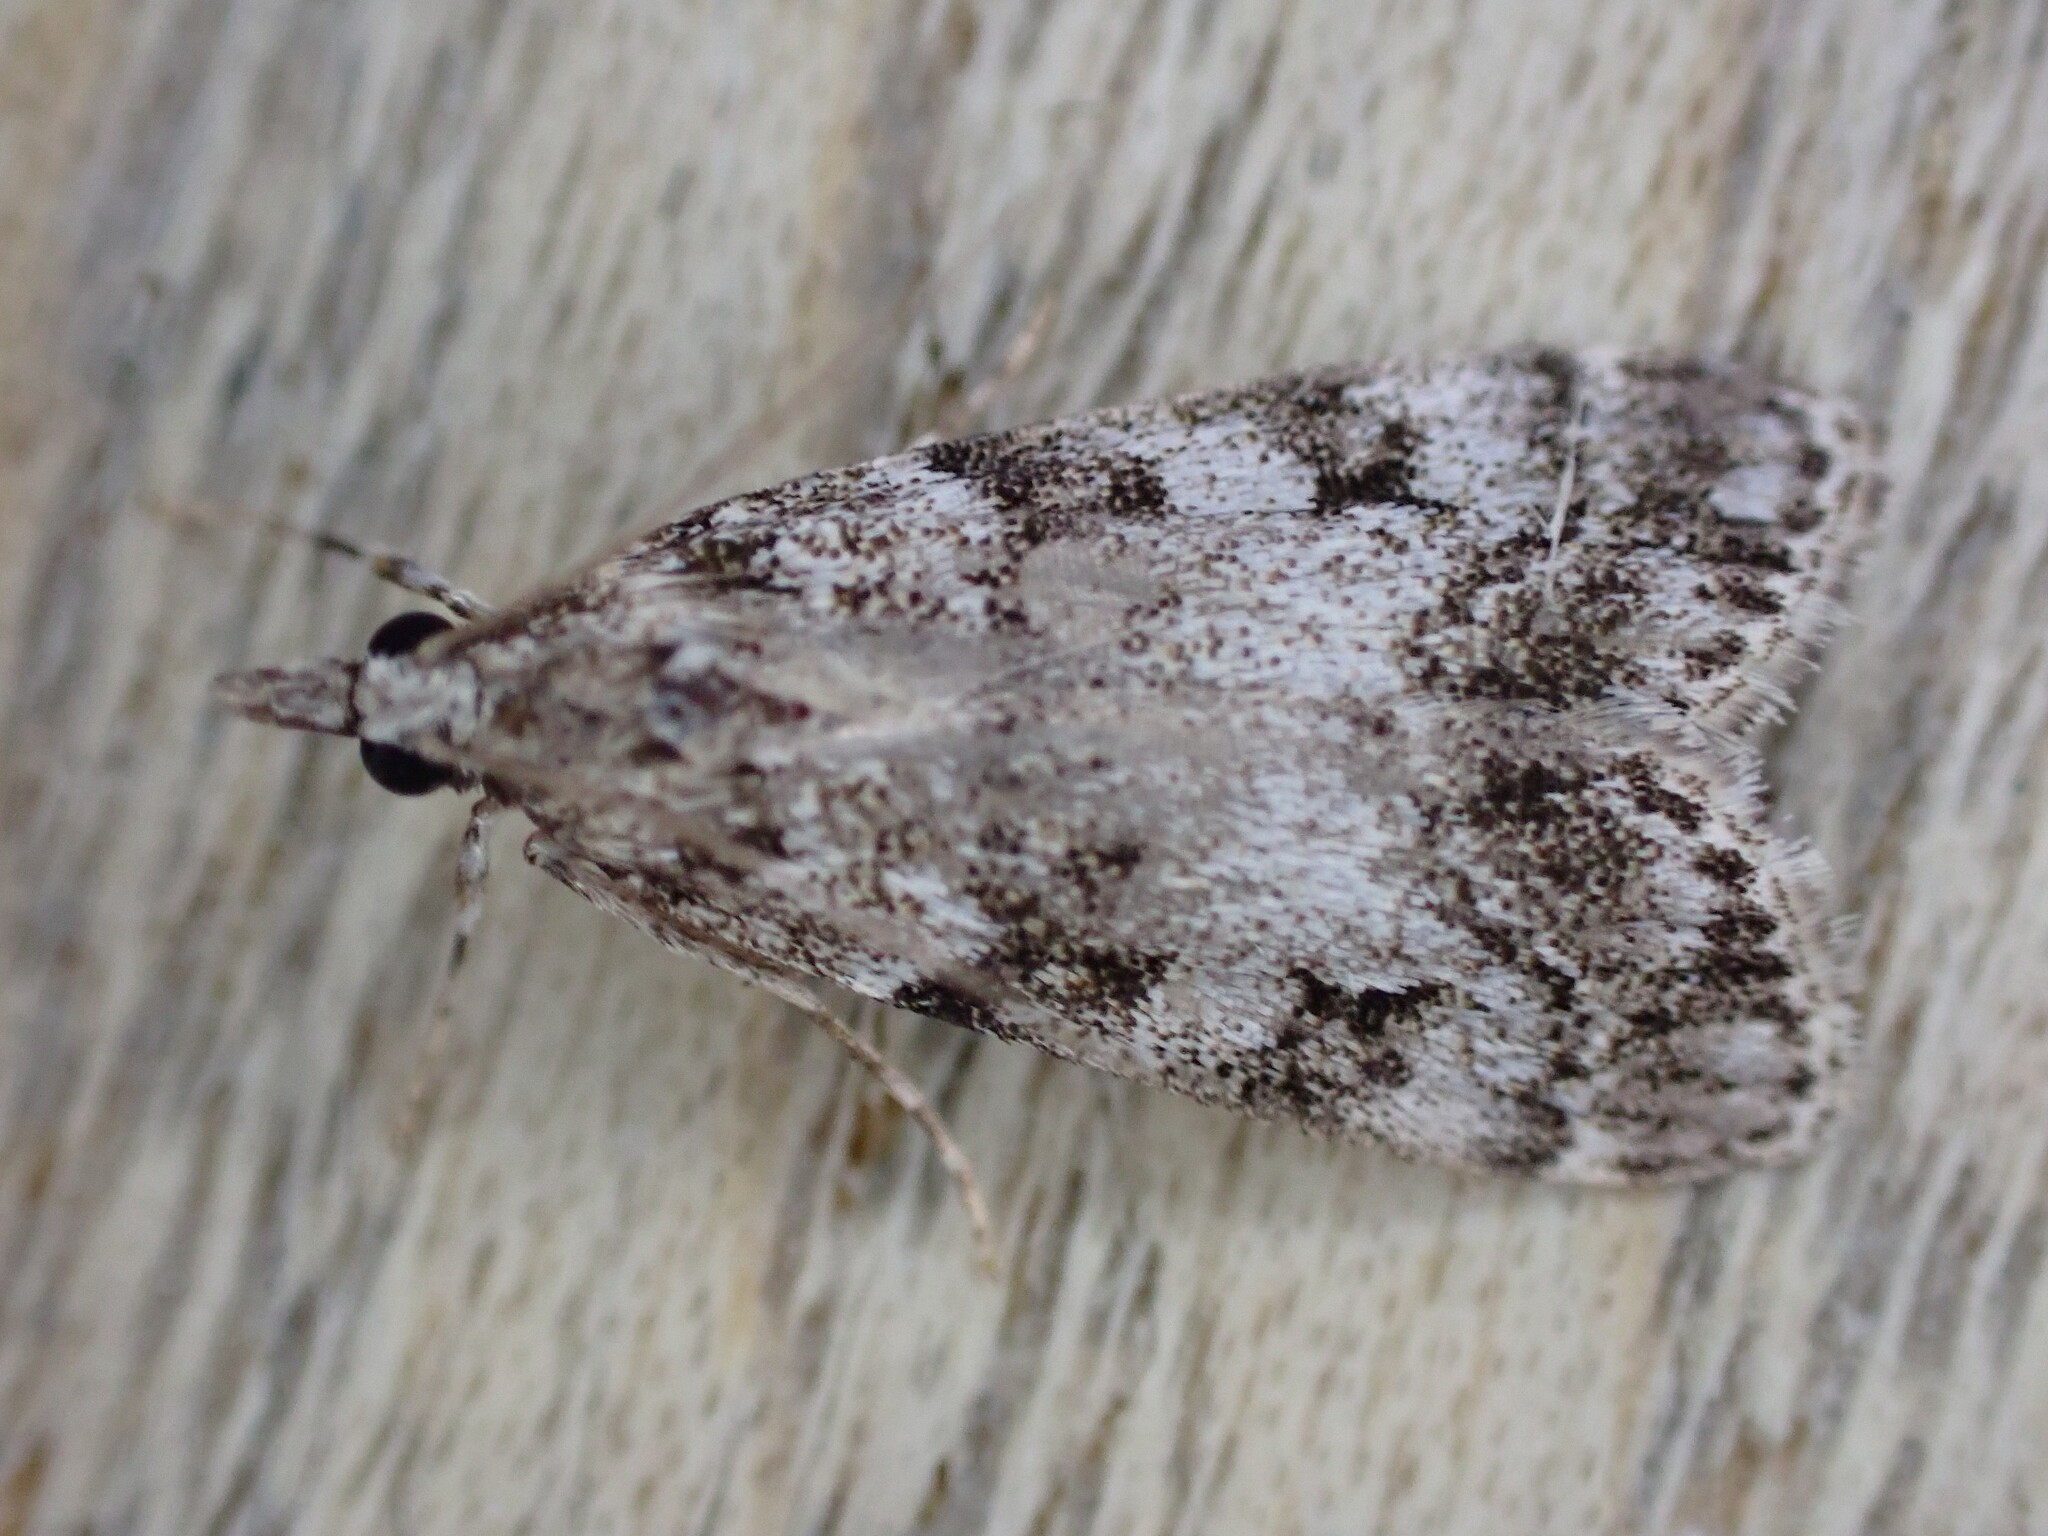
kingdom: Animalia
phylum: Arthropoda
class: Insecta
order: Lepidoptera
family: Crambidae
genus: Eudonia
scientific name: Eudonia lacustrata
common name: Little grey
